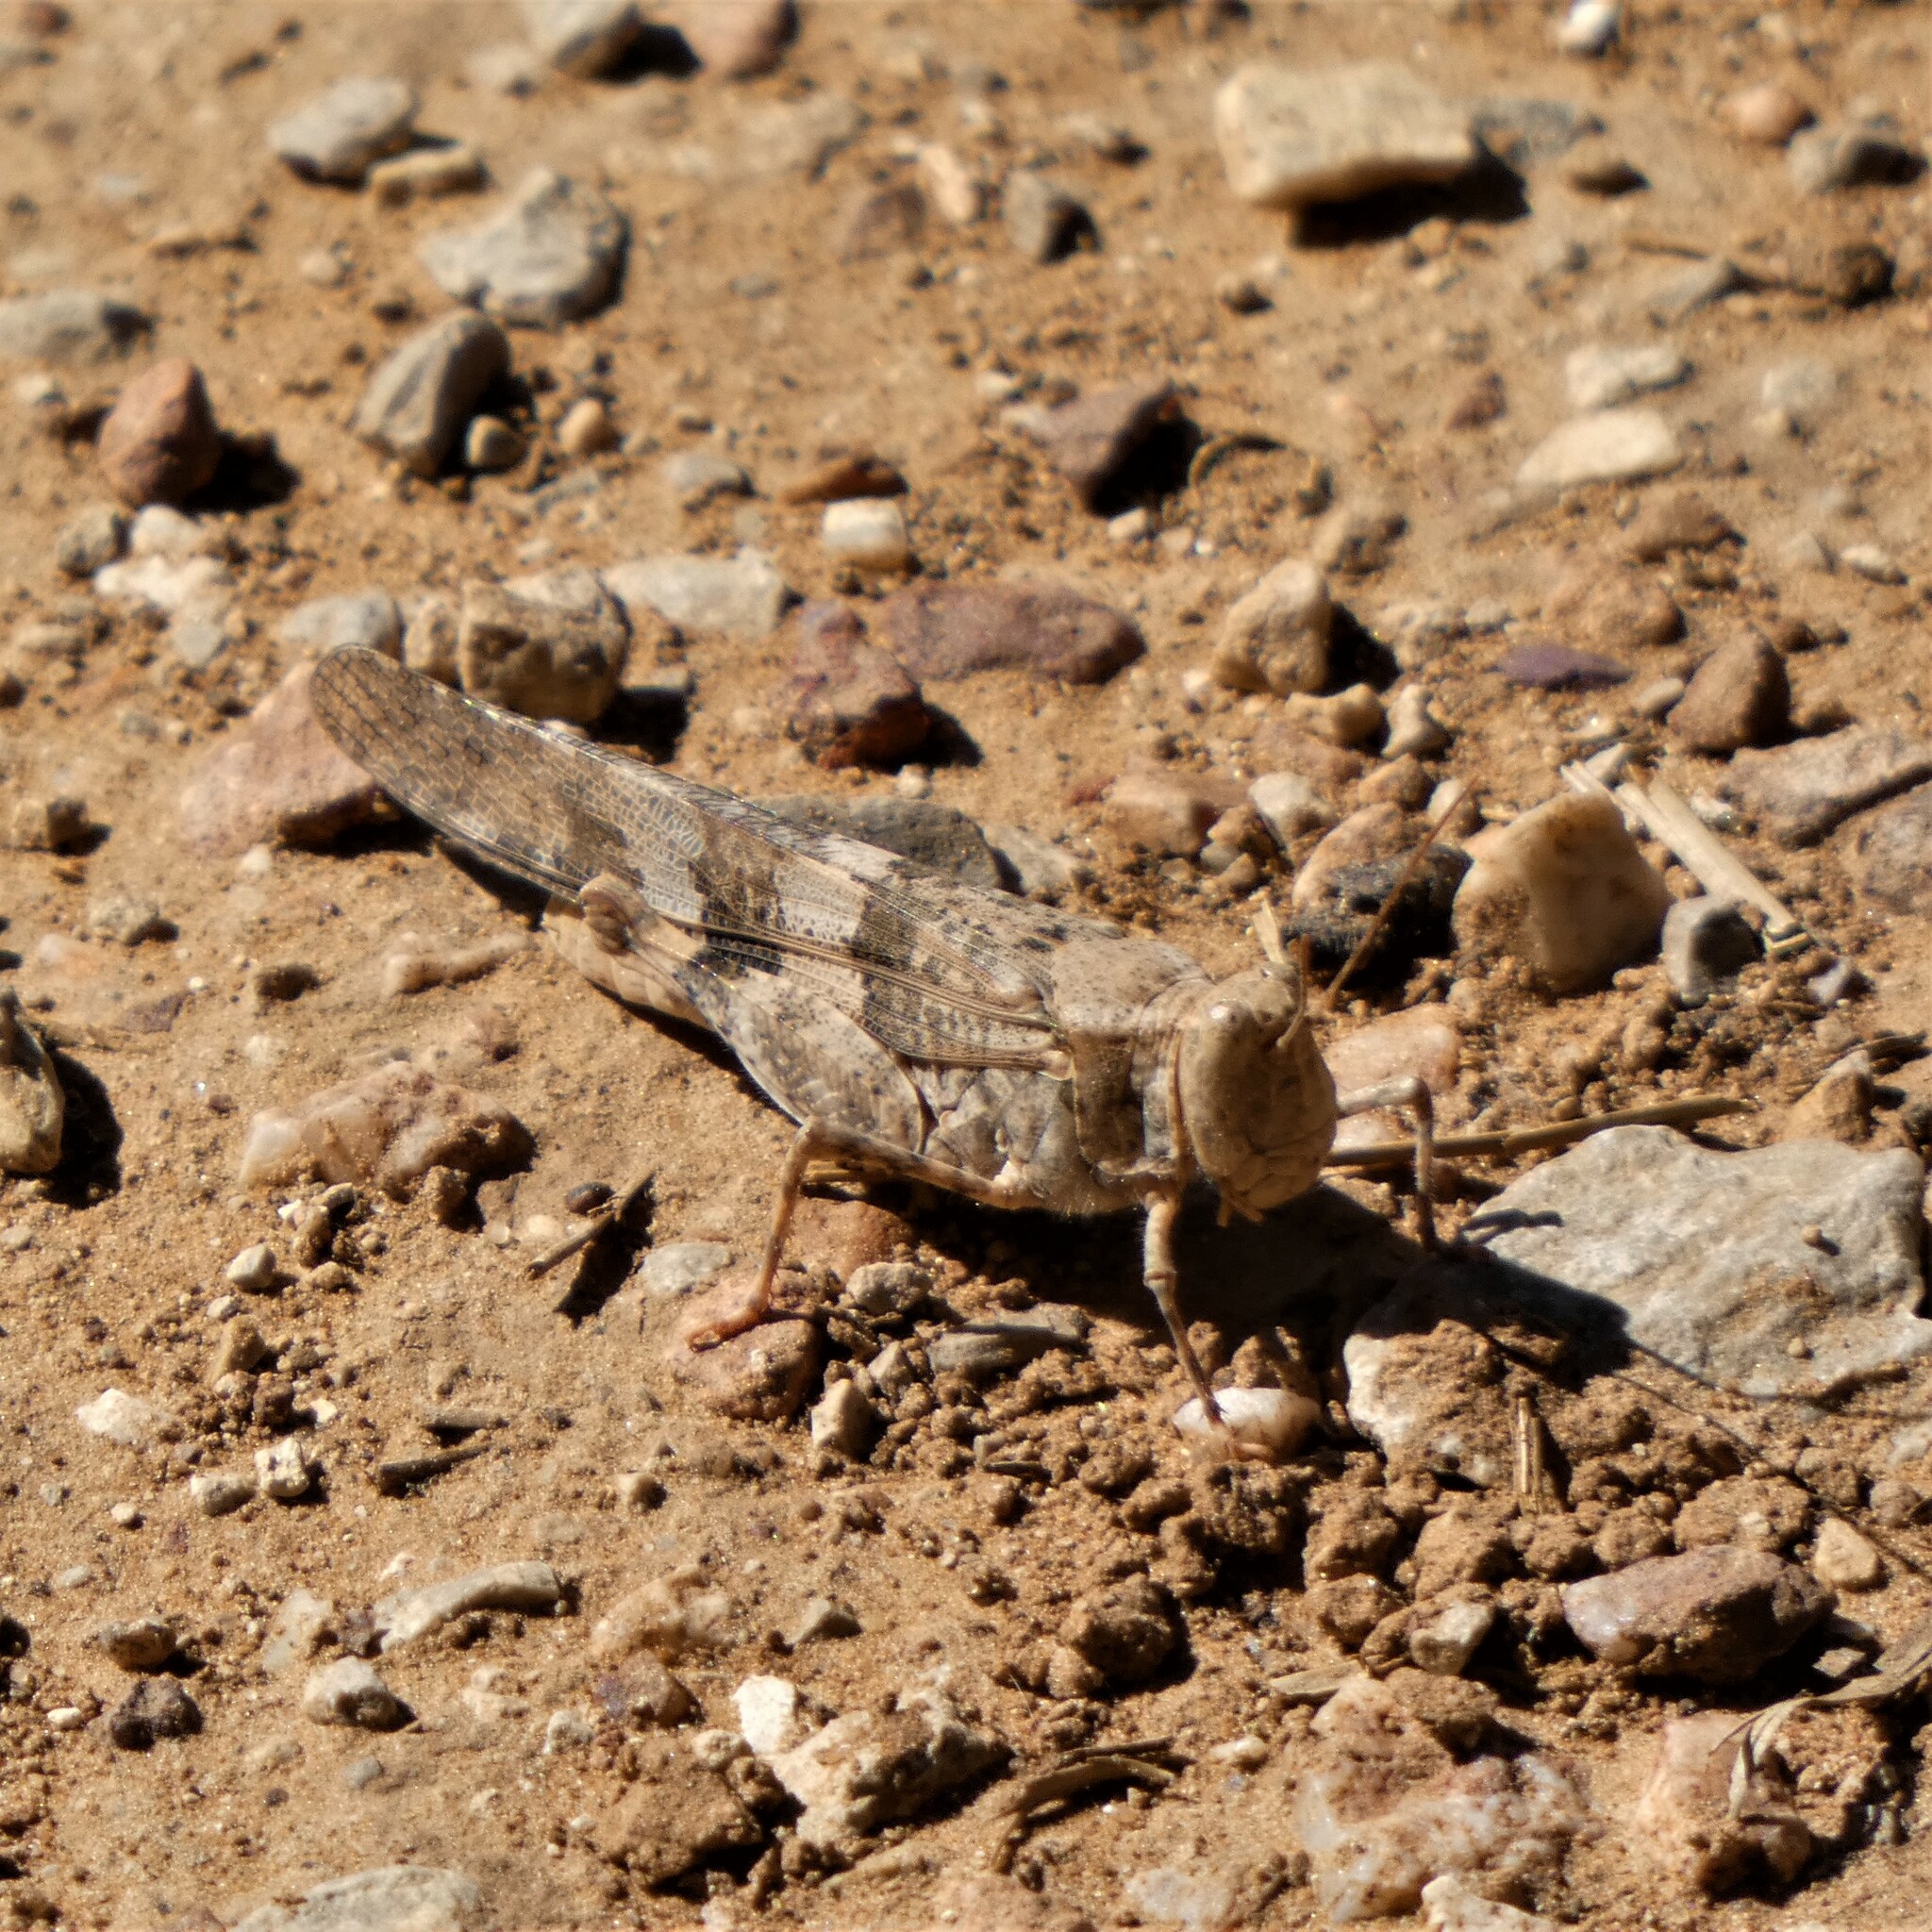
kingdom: Animalia
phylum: Arthropoda
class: Insecta
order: Orthoptera
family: Acrididae
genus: Trimerotropis
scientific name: Trimerotropis pallidipennis
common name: Pallid-winged grasshopper
